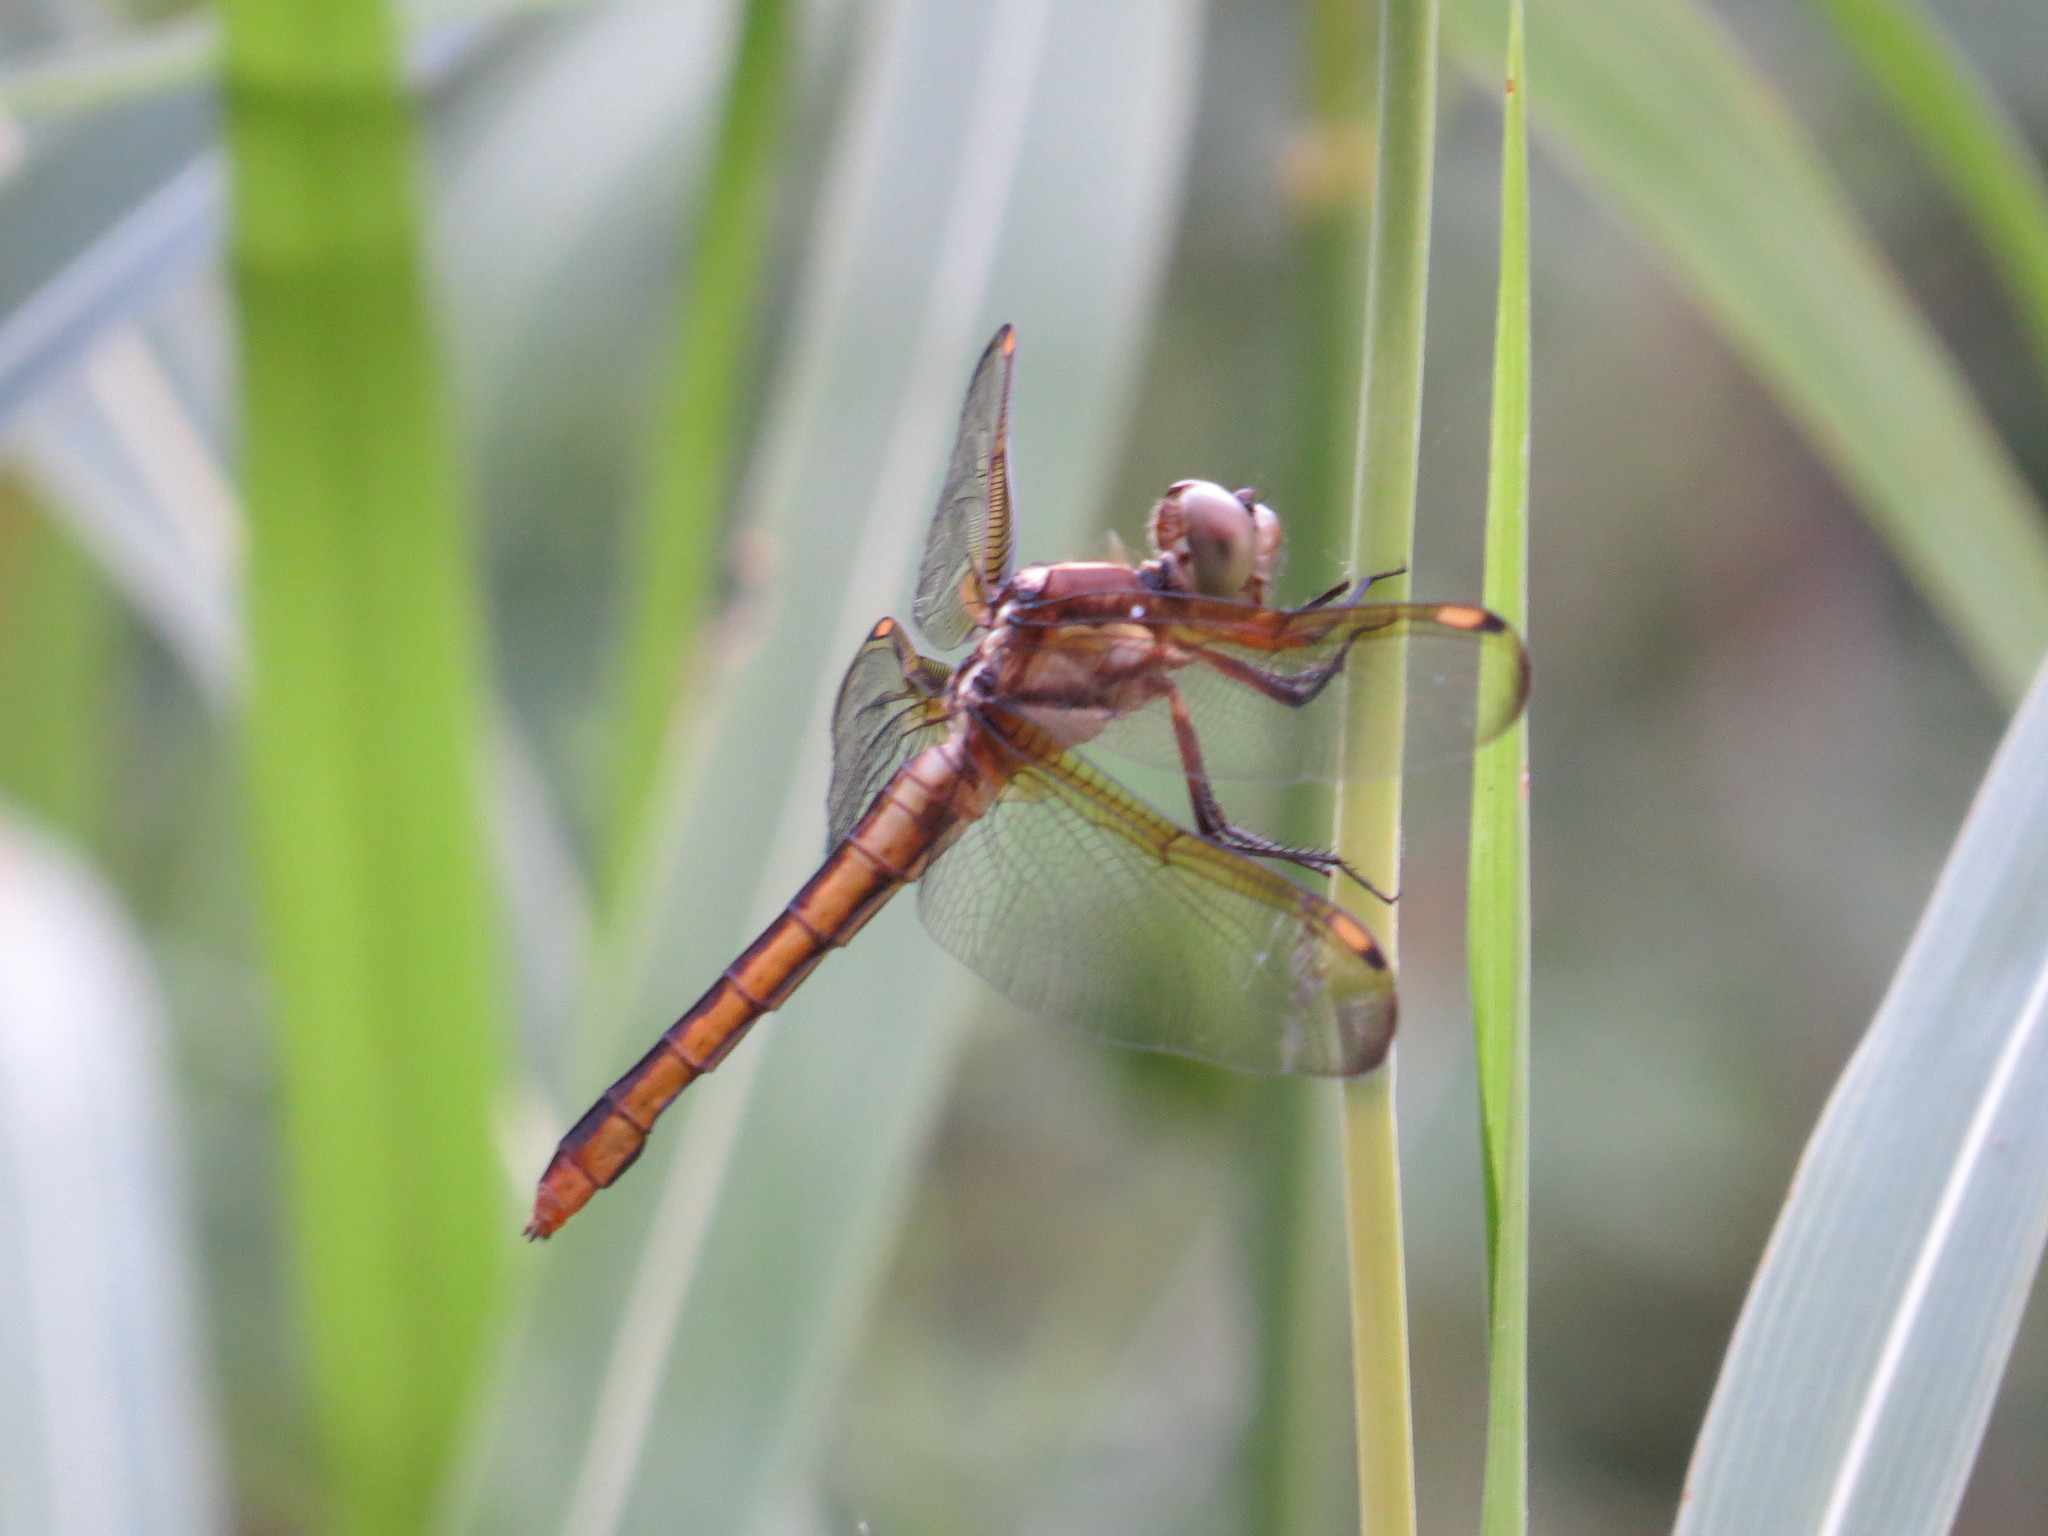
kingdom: Animalia
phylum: Arthropoda
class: Insecta
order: Odonata
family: Libellulidae
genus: Libellula
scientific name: Libellula flavida
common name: Yellow-sided skimmer
